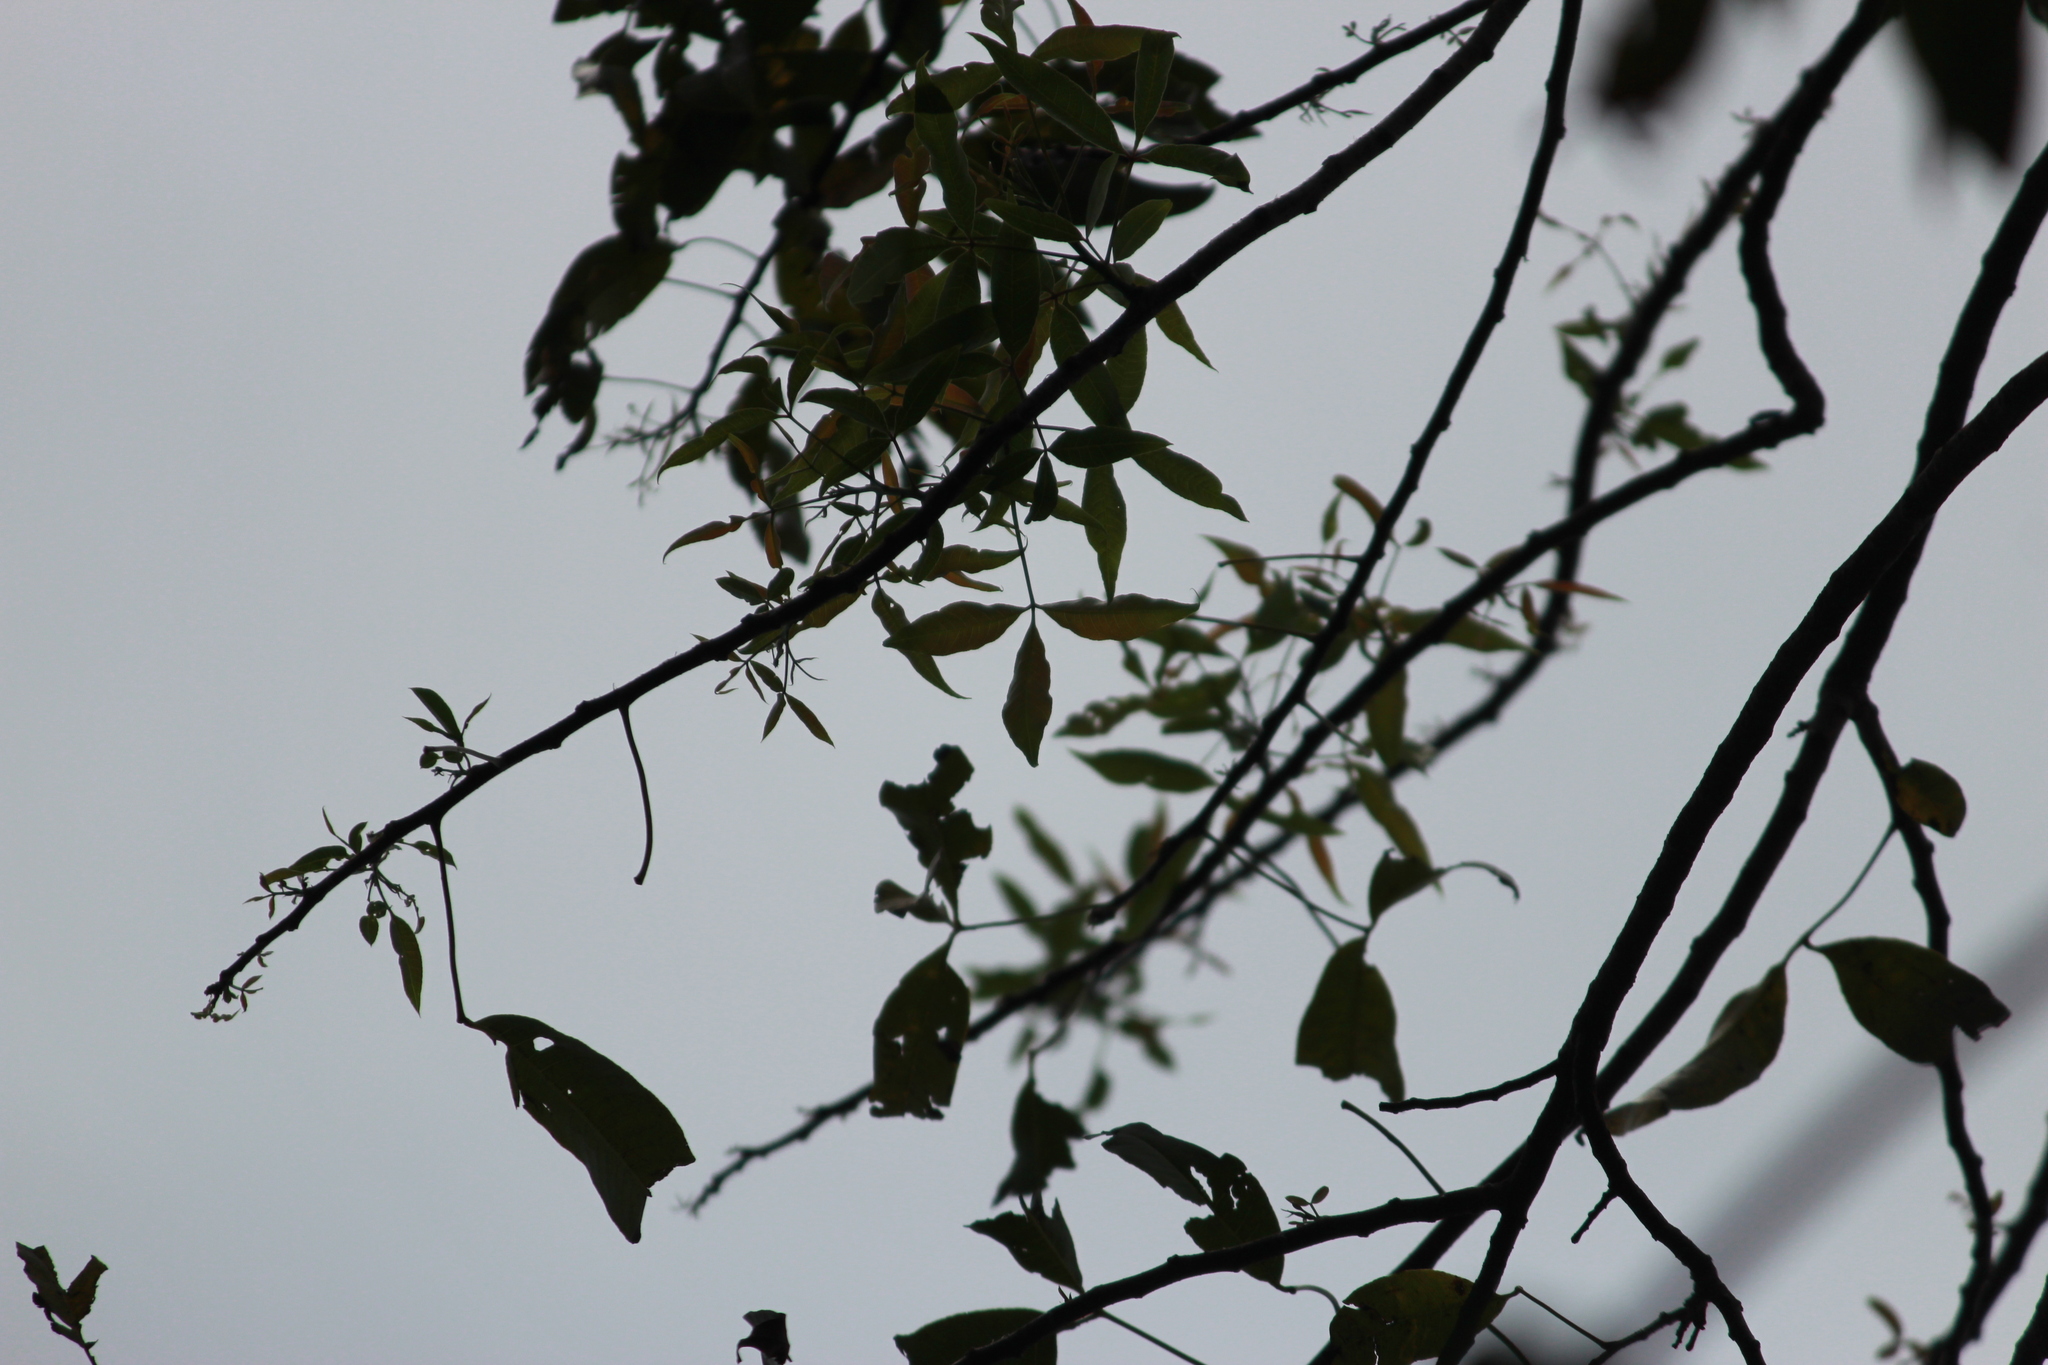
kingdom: Plantae
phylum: Tracheophyta
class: Magnoliopsida
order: Sapindales
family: Anacardiaceae
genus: Searsia
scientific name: Searsia chirindensis
